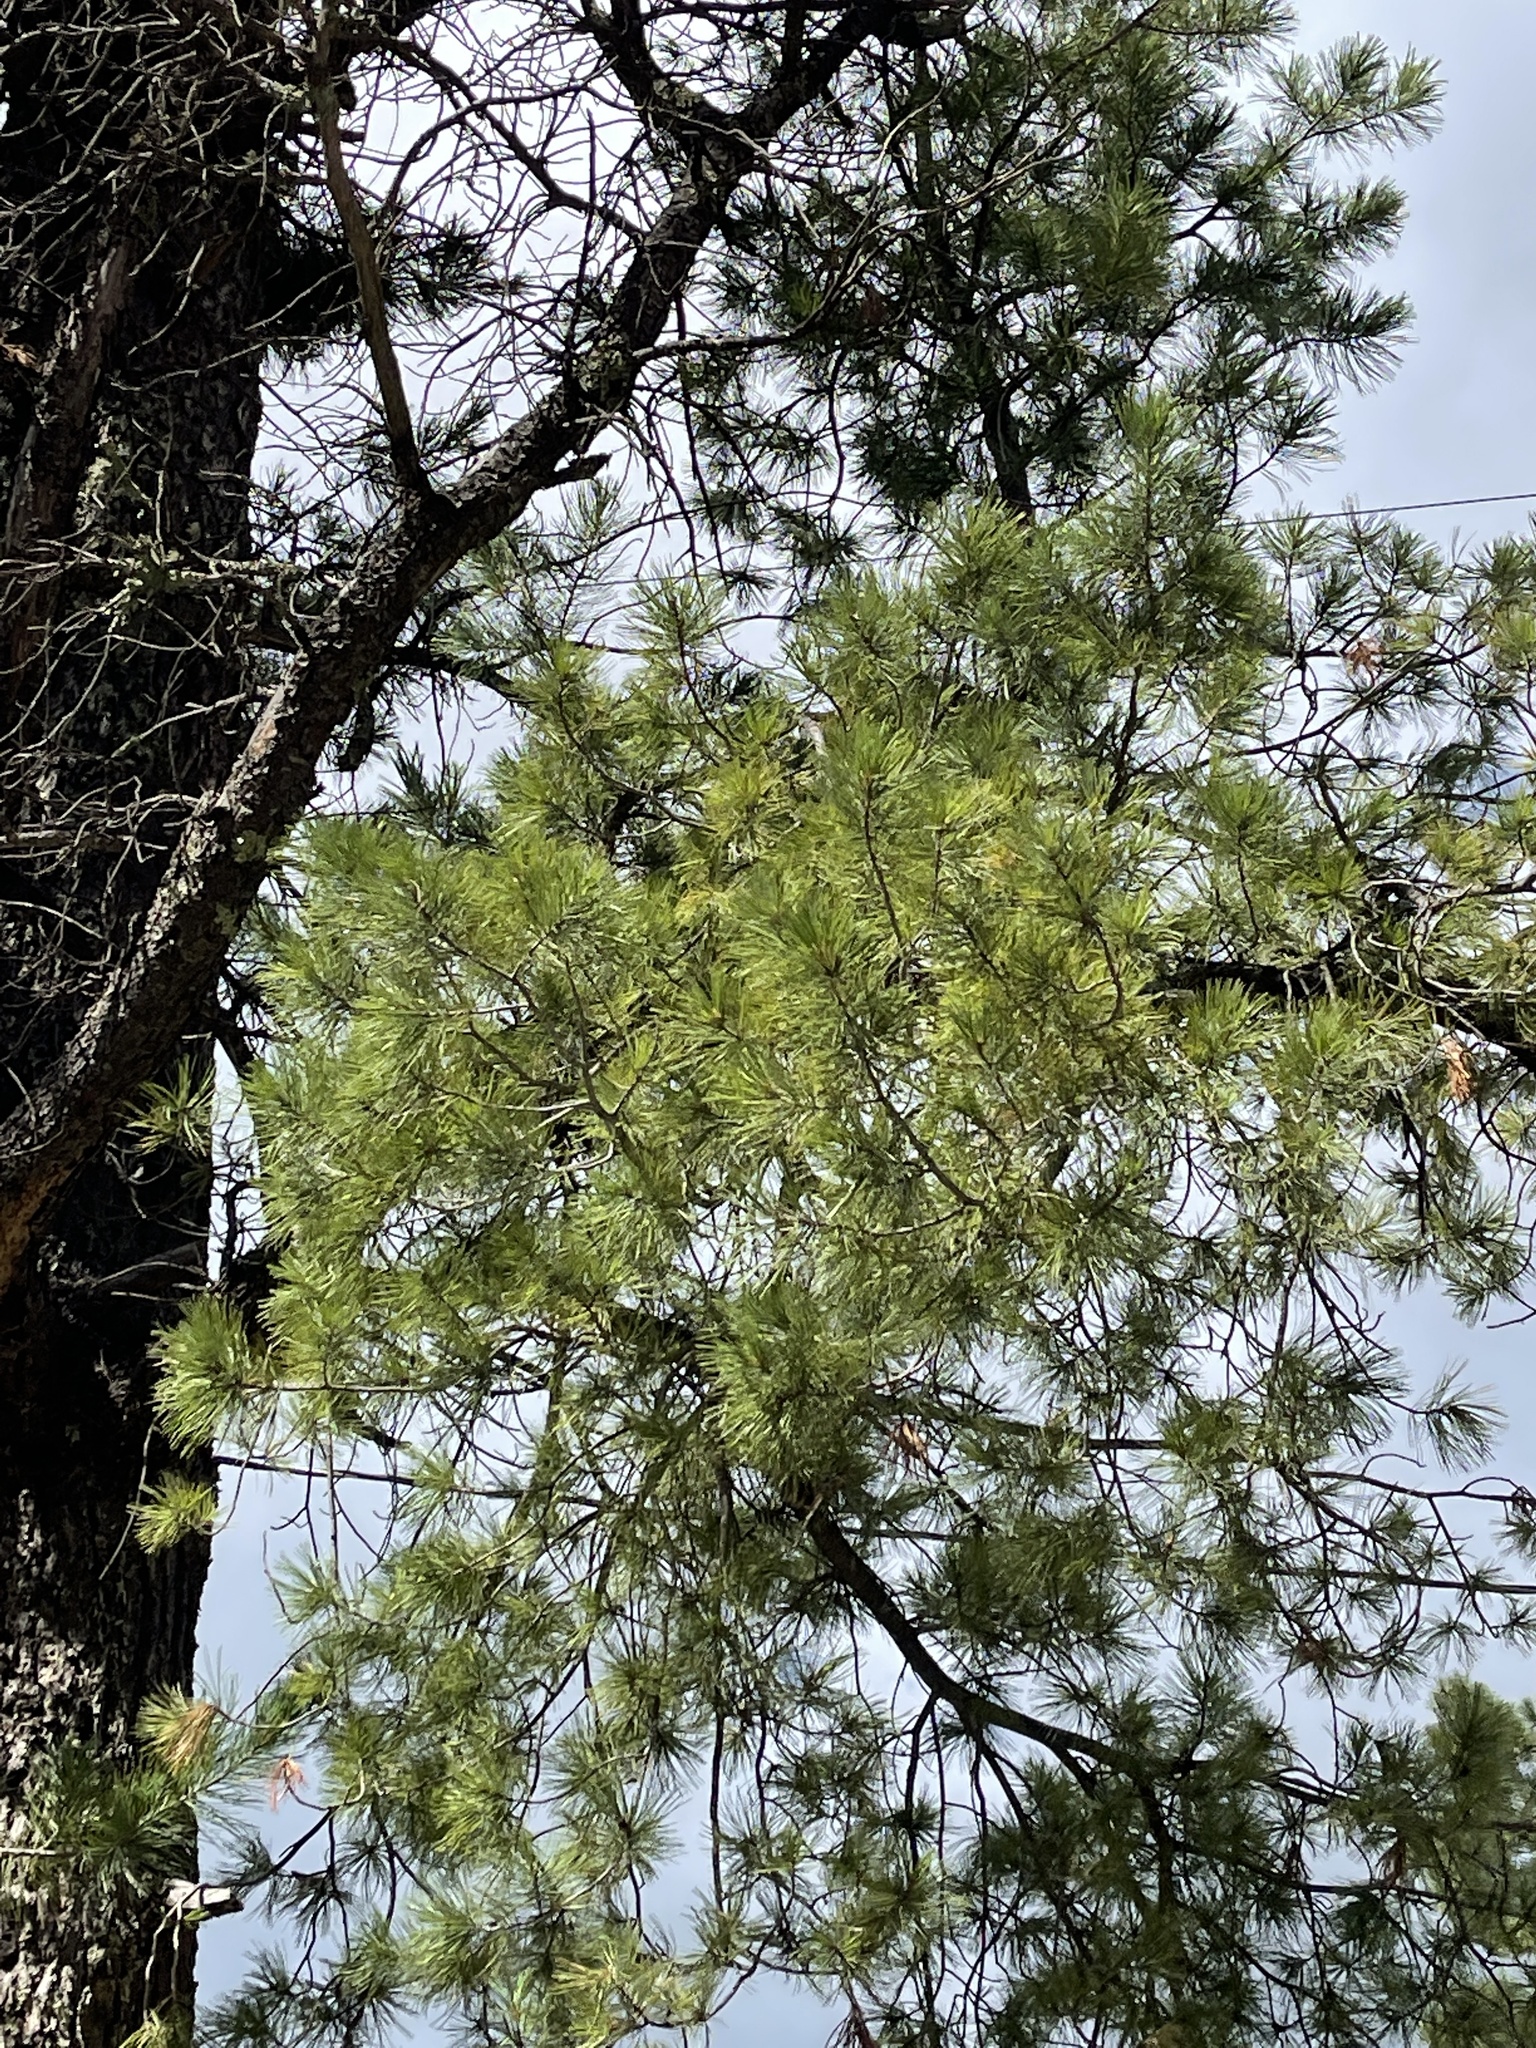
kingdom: Plantae
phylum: Tracheophyta
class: Pinopsida
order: Pinales
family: Pinaceae
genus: Pinus
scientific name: Pinus strobiformis
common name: Southwestern white pine
